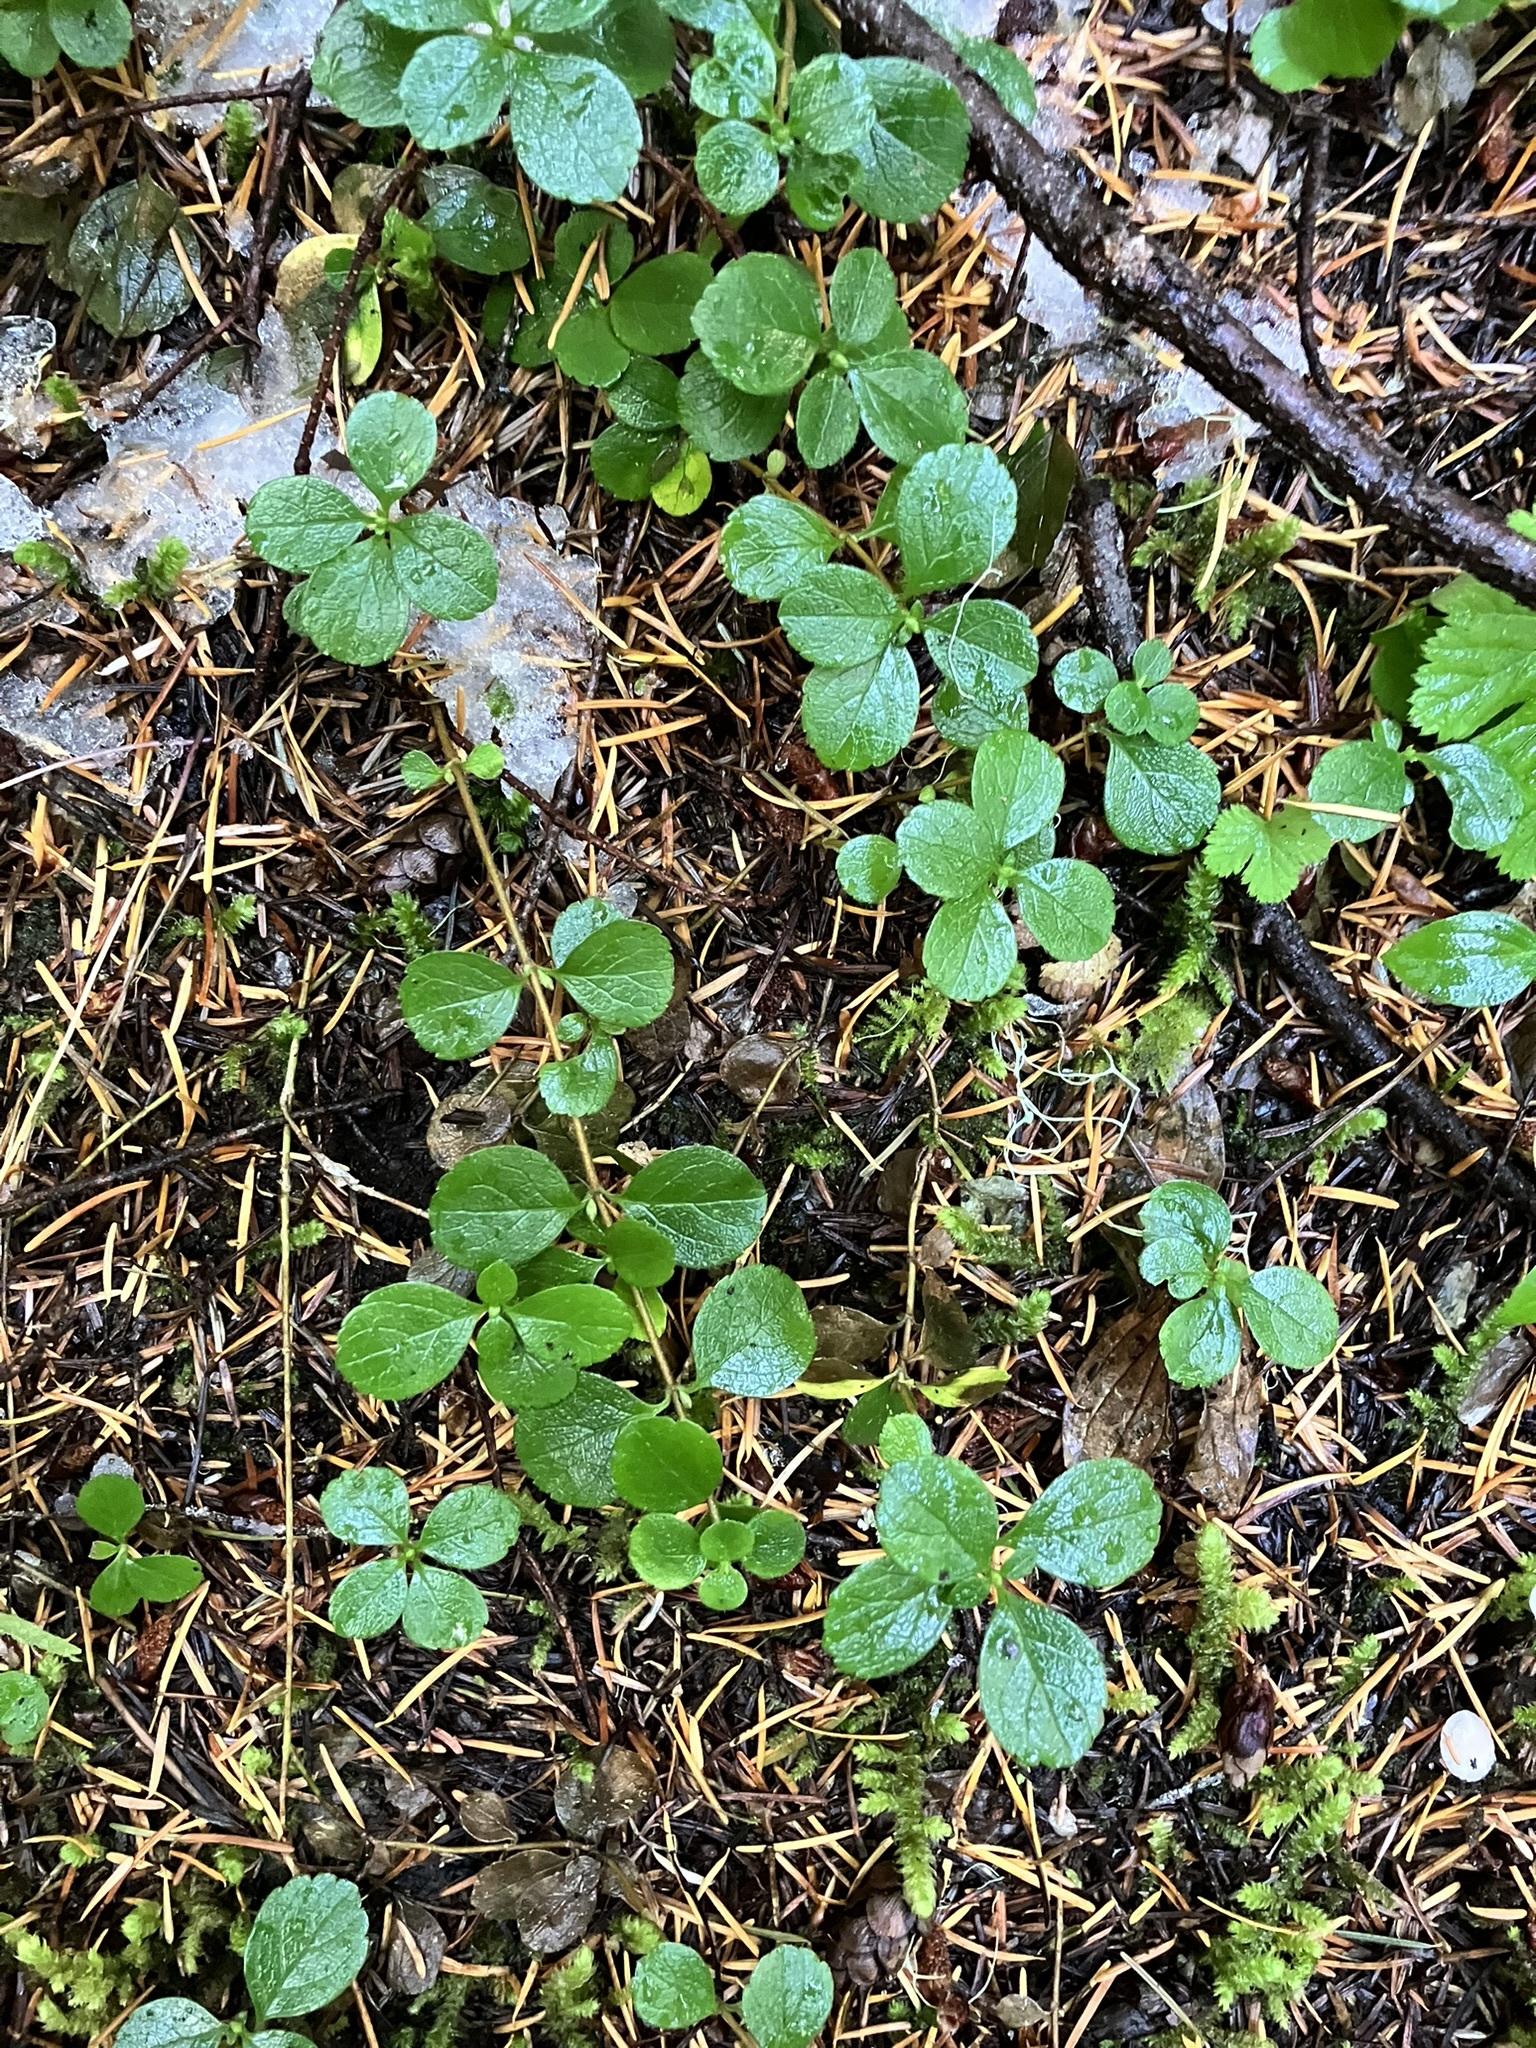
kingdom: Plantae
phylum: Tracheophyta
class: Magnoliopsida
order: Dipsacales
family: Caprifoliaceae
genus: Linnaea
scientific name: Linnaea borealis
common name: Twinflower
